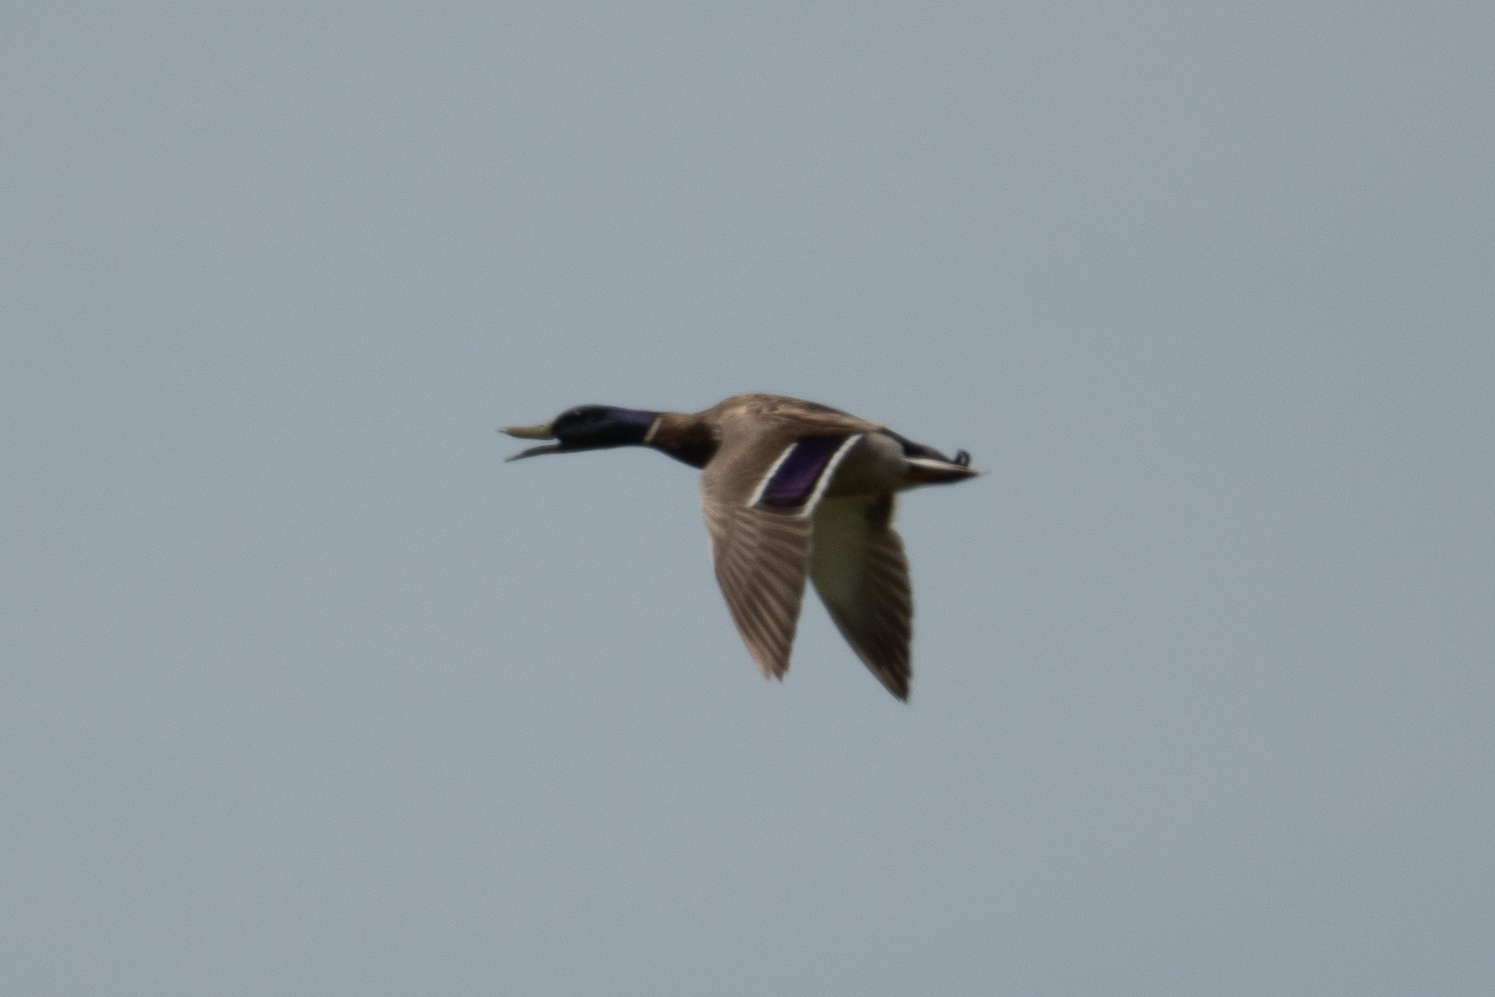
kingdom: Animalia
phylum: Chordata
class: Aves
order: Anseriformes
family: Anatidae
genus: Anas
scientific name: Anas platyrhynchos
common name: Mallard
